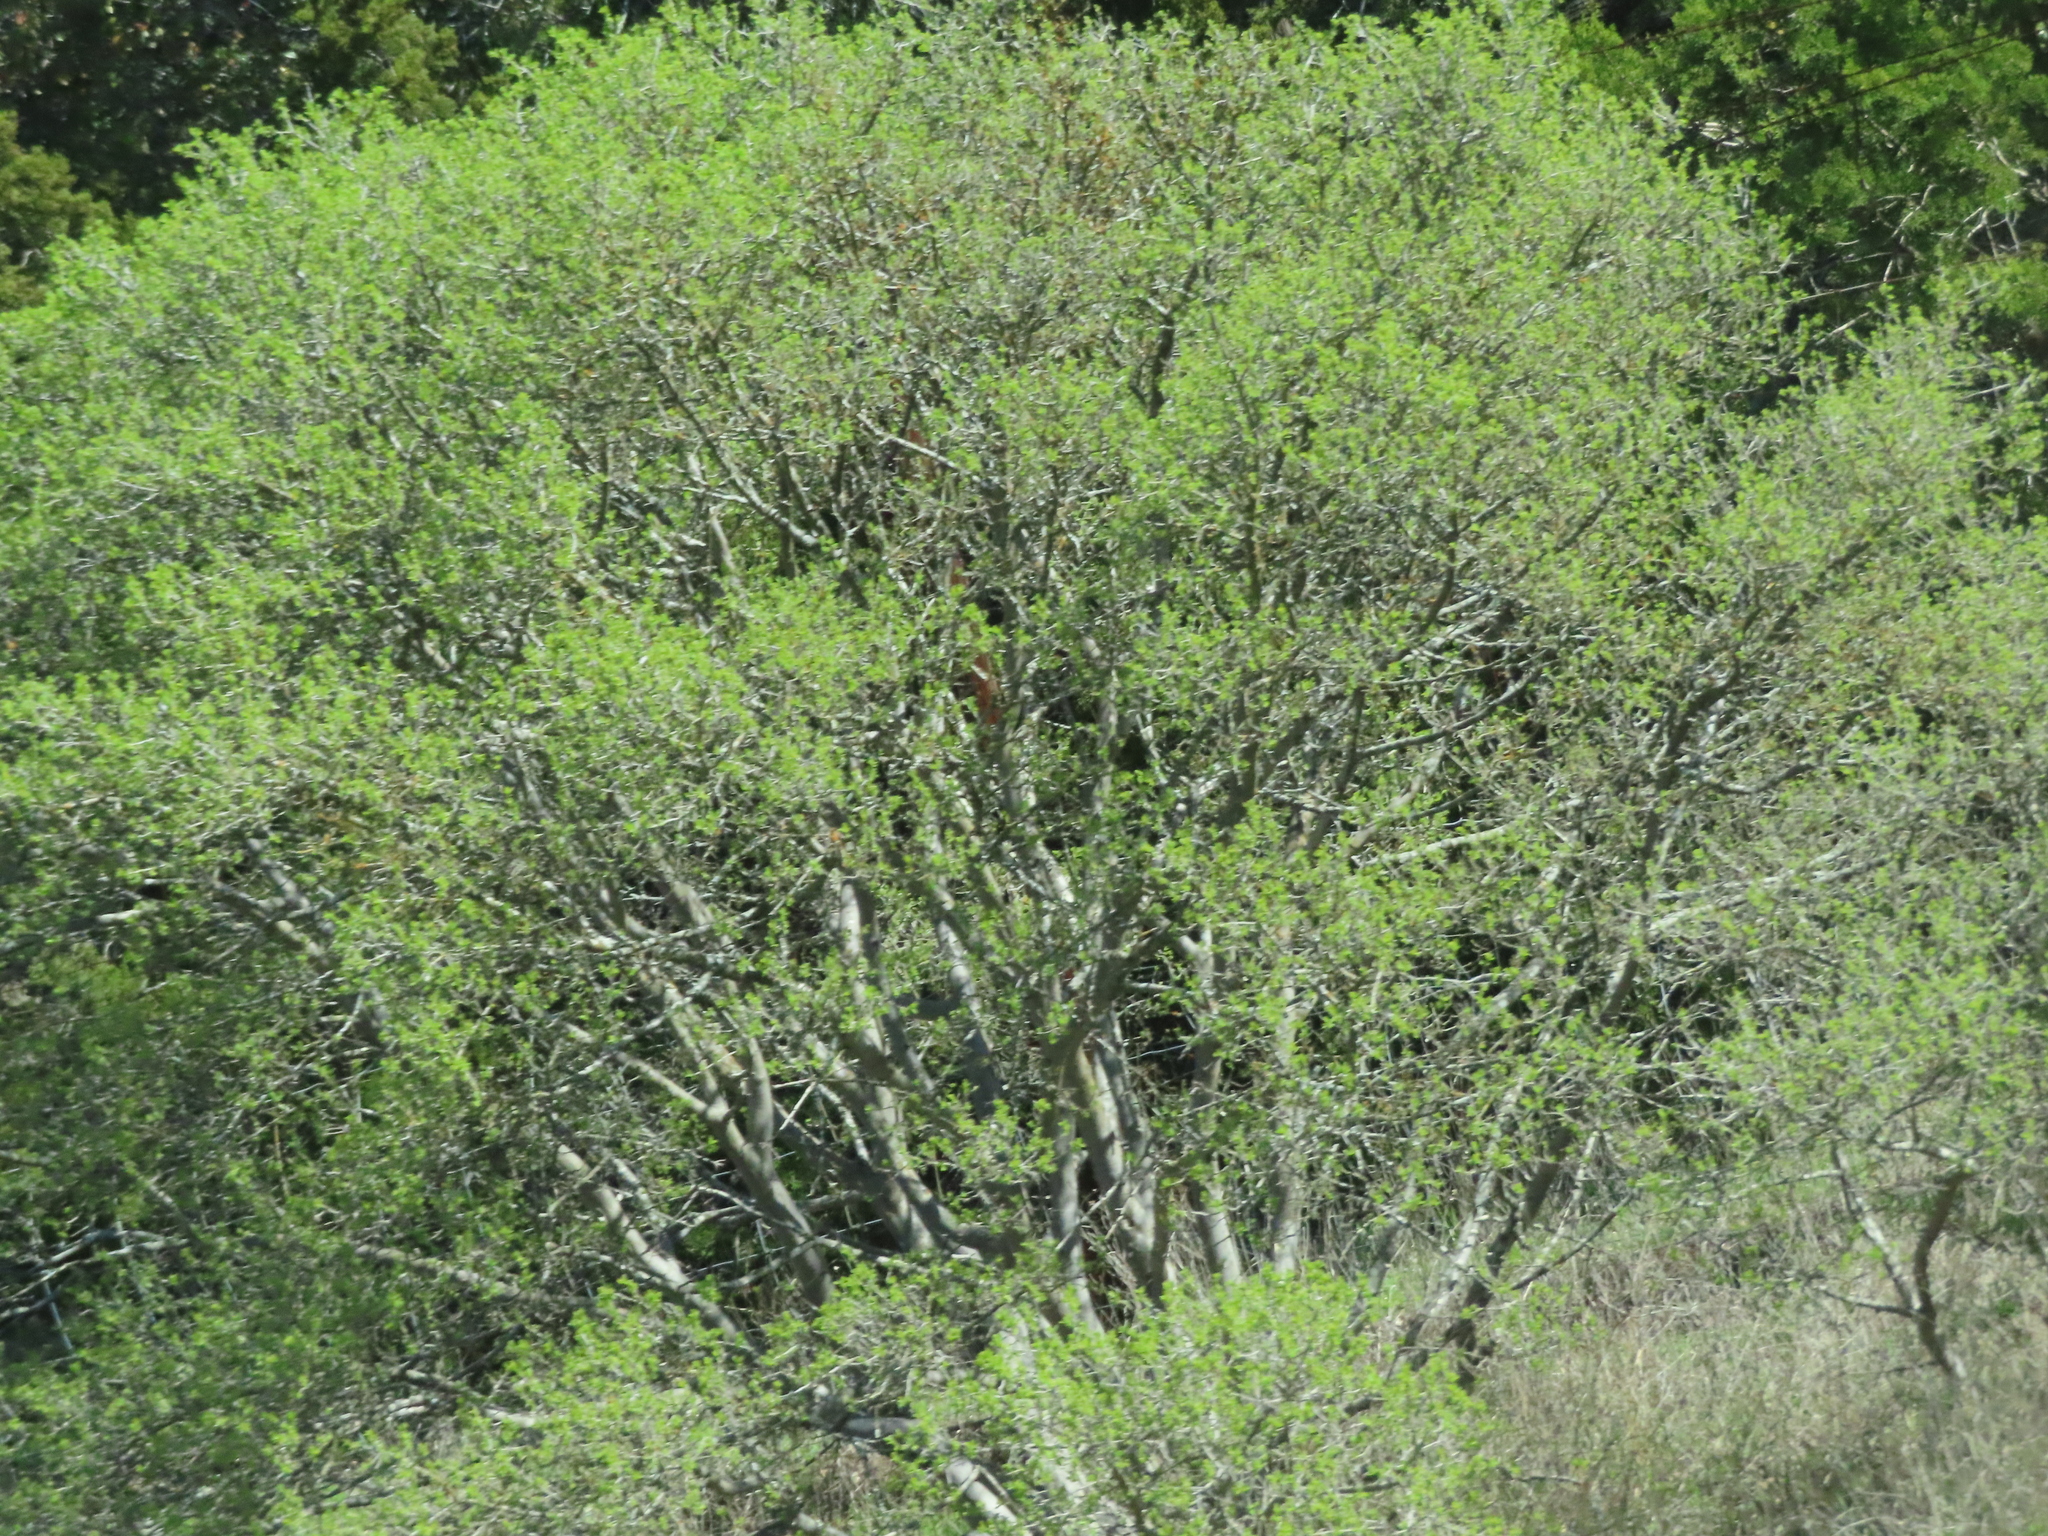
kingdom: Plantae
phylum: Tracheophyta
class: Magnoliopsida
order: Ericales
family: Ebenaceae
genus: Diospyros
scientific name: Diospyros texana
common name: Texas persimmon
